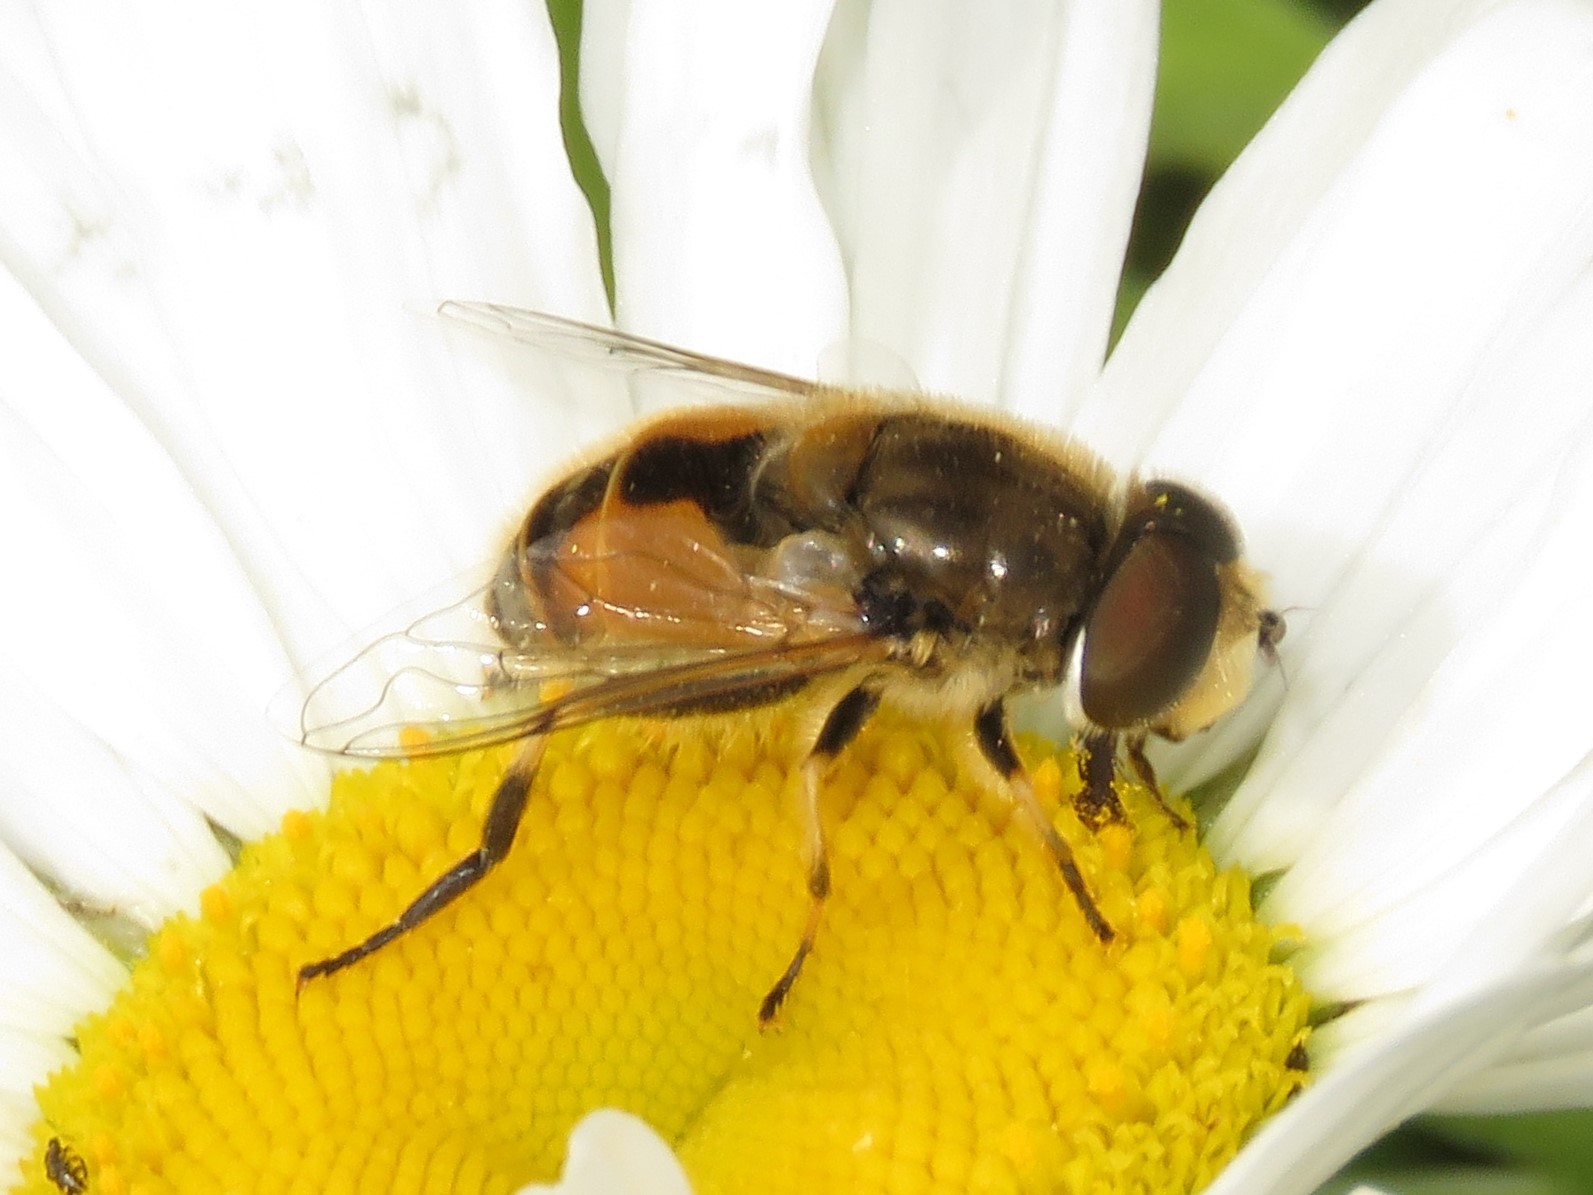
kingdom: Animalia
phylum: Arthropoda
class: Insecta
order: Diptera
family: Syrphidae
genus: Eristalis
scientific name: Eristalis arbustorum
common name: Hover fly
